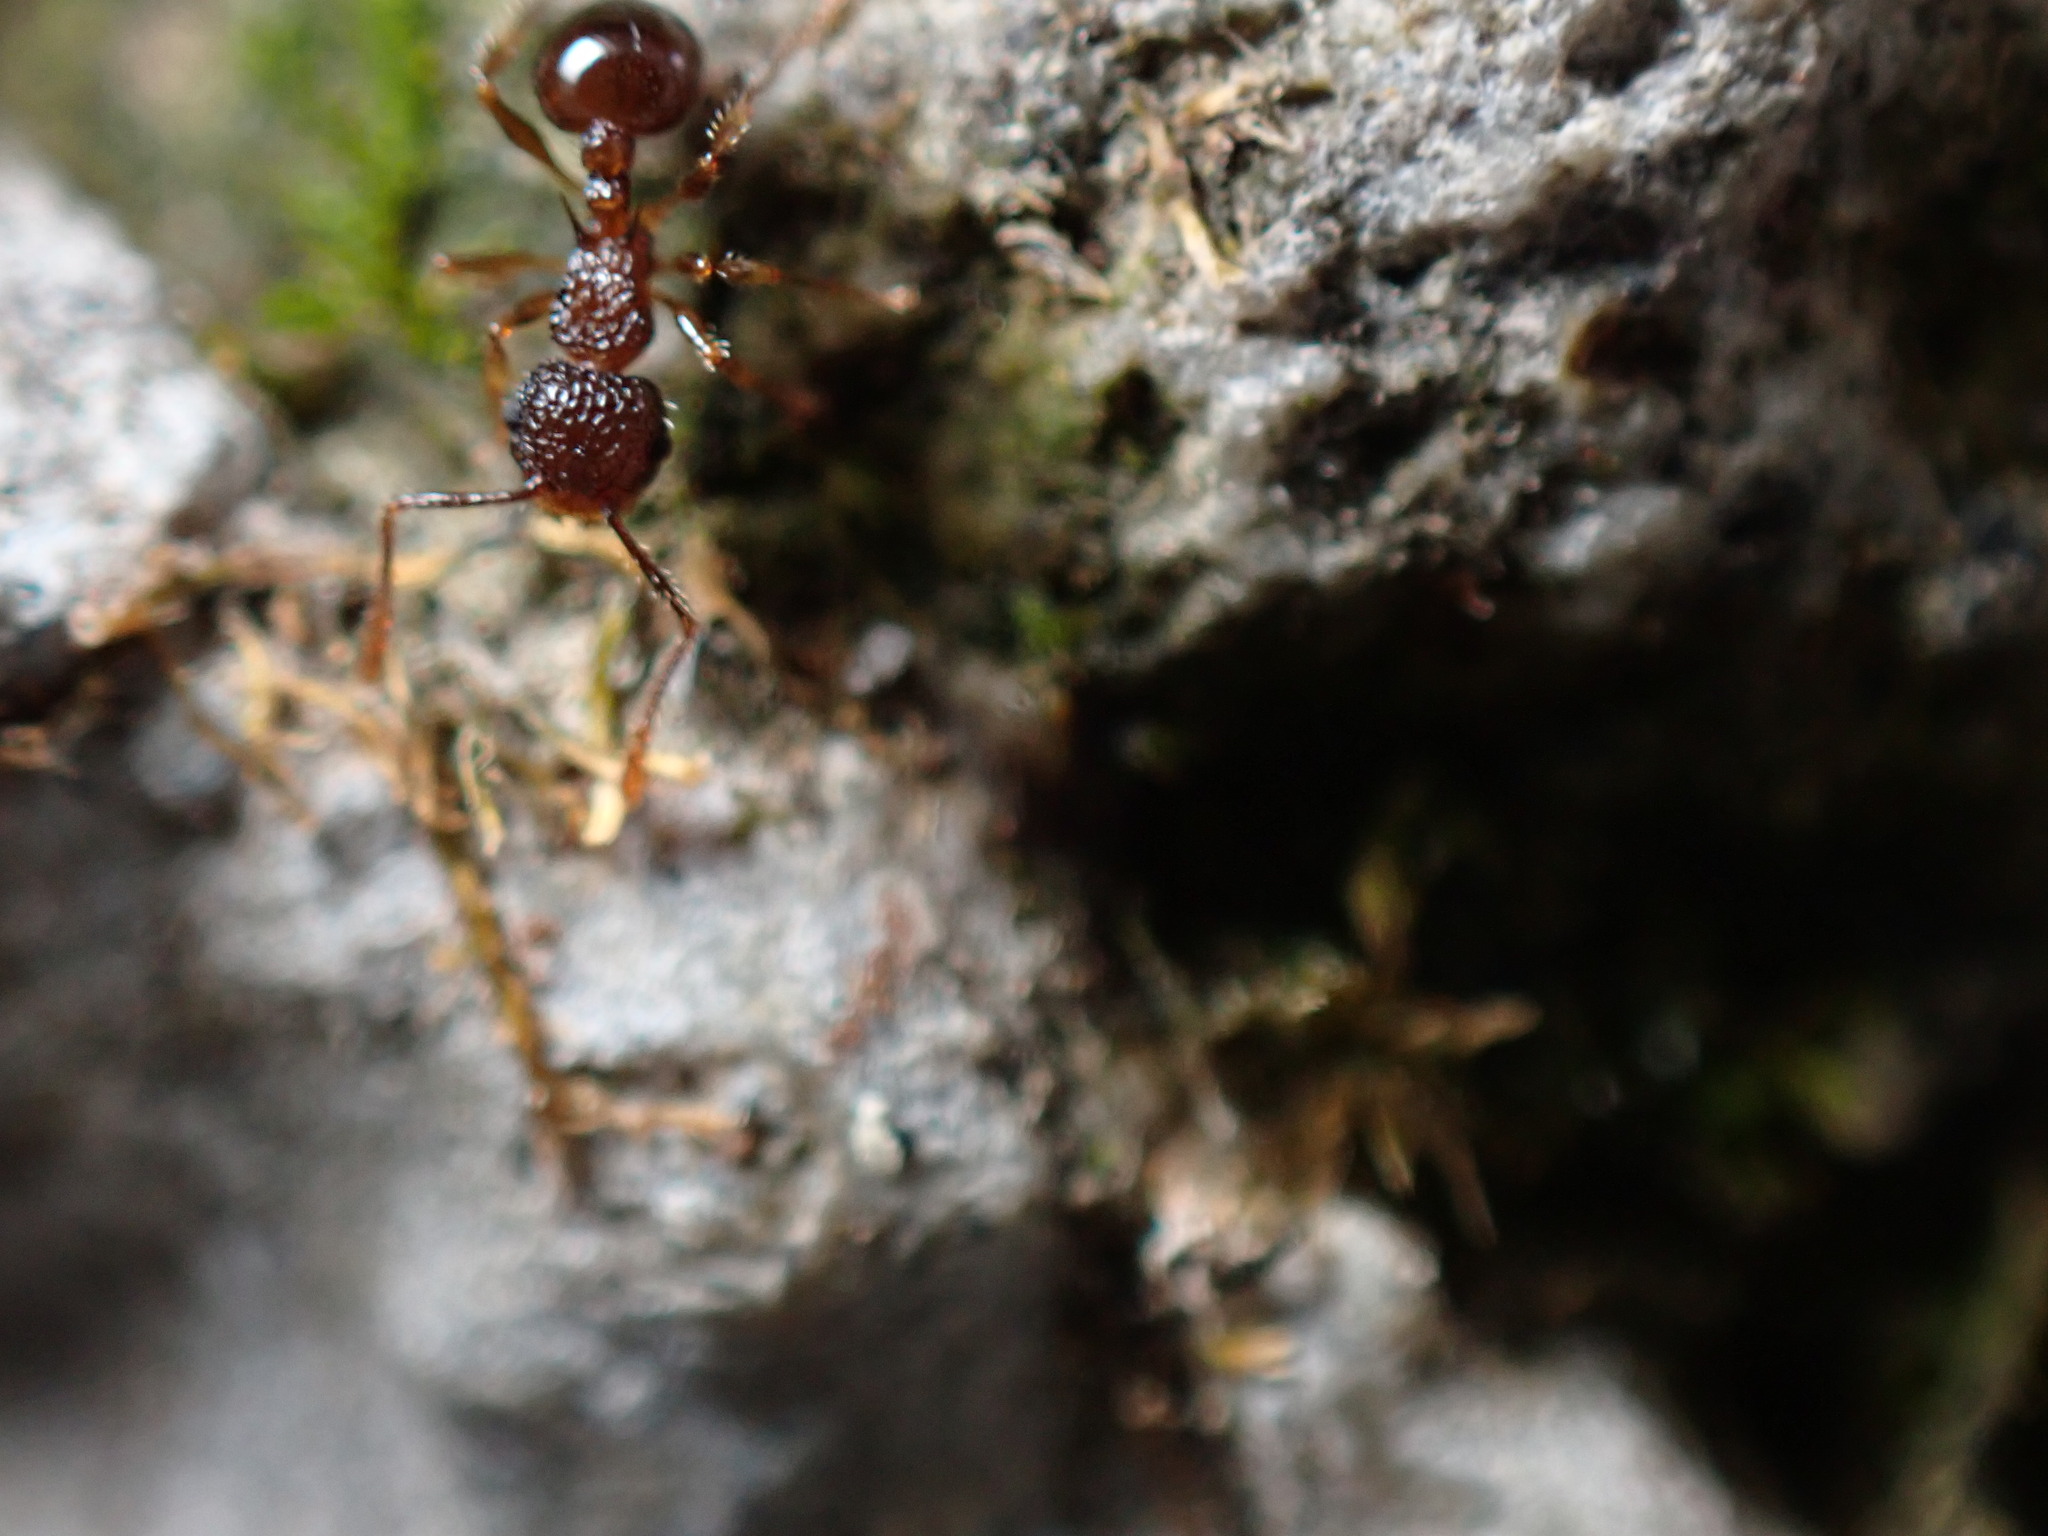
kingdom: Animalia
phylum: Arthropoda
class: Insecta
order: Hymenoptera
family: Formicidae
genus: Pristomyrmex
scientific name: Pristomyrmex punctatus
